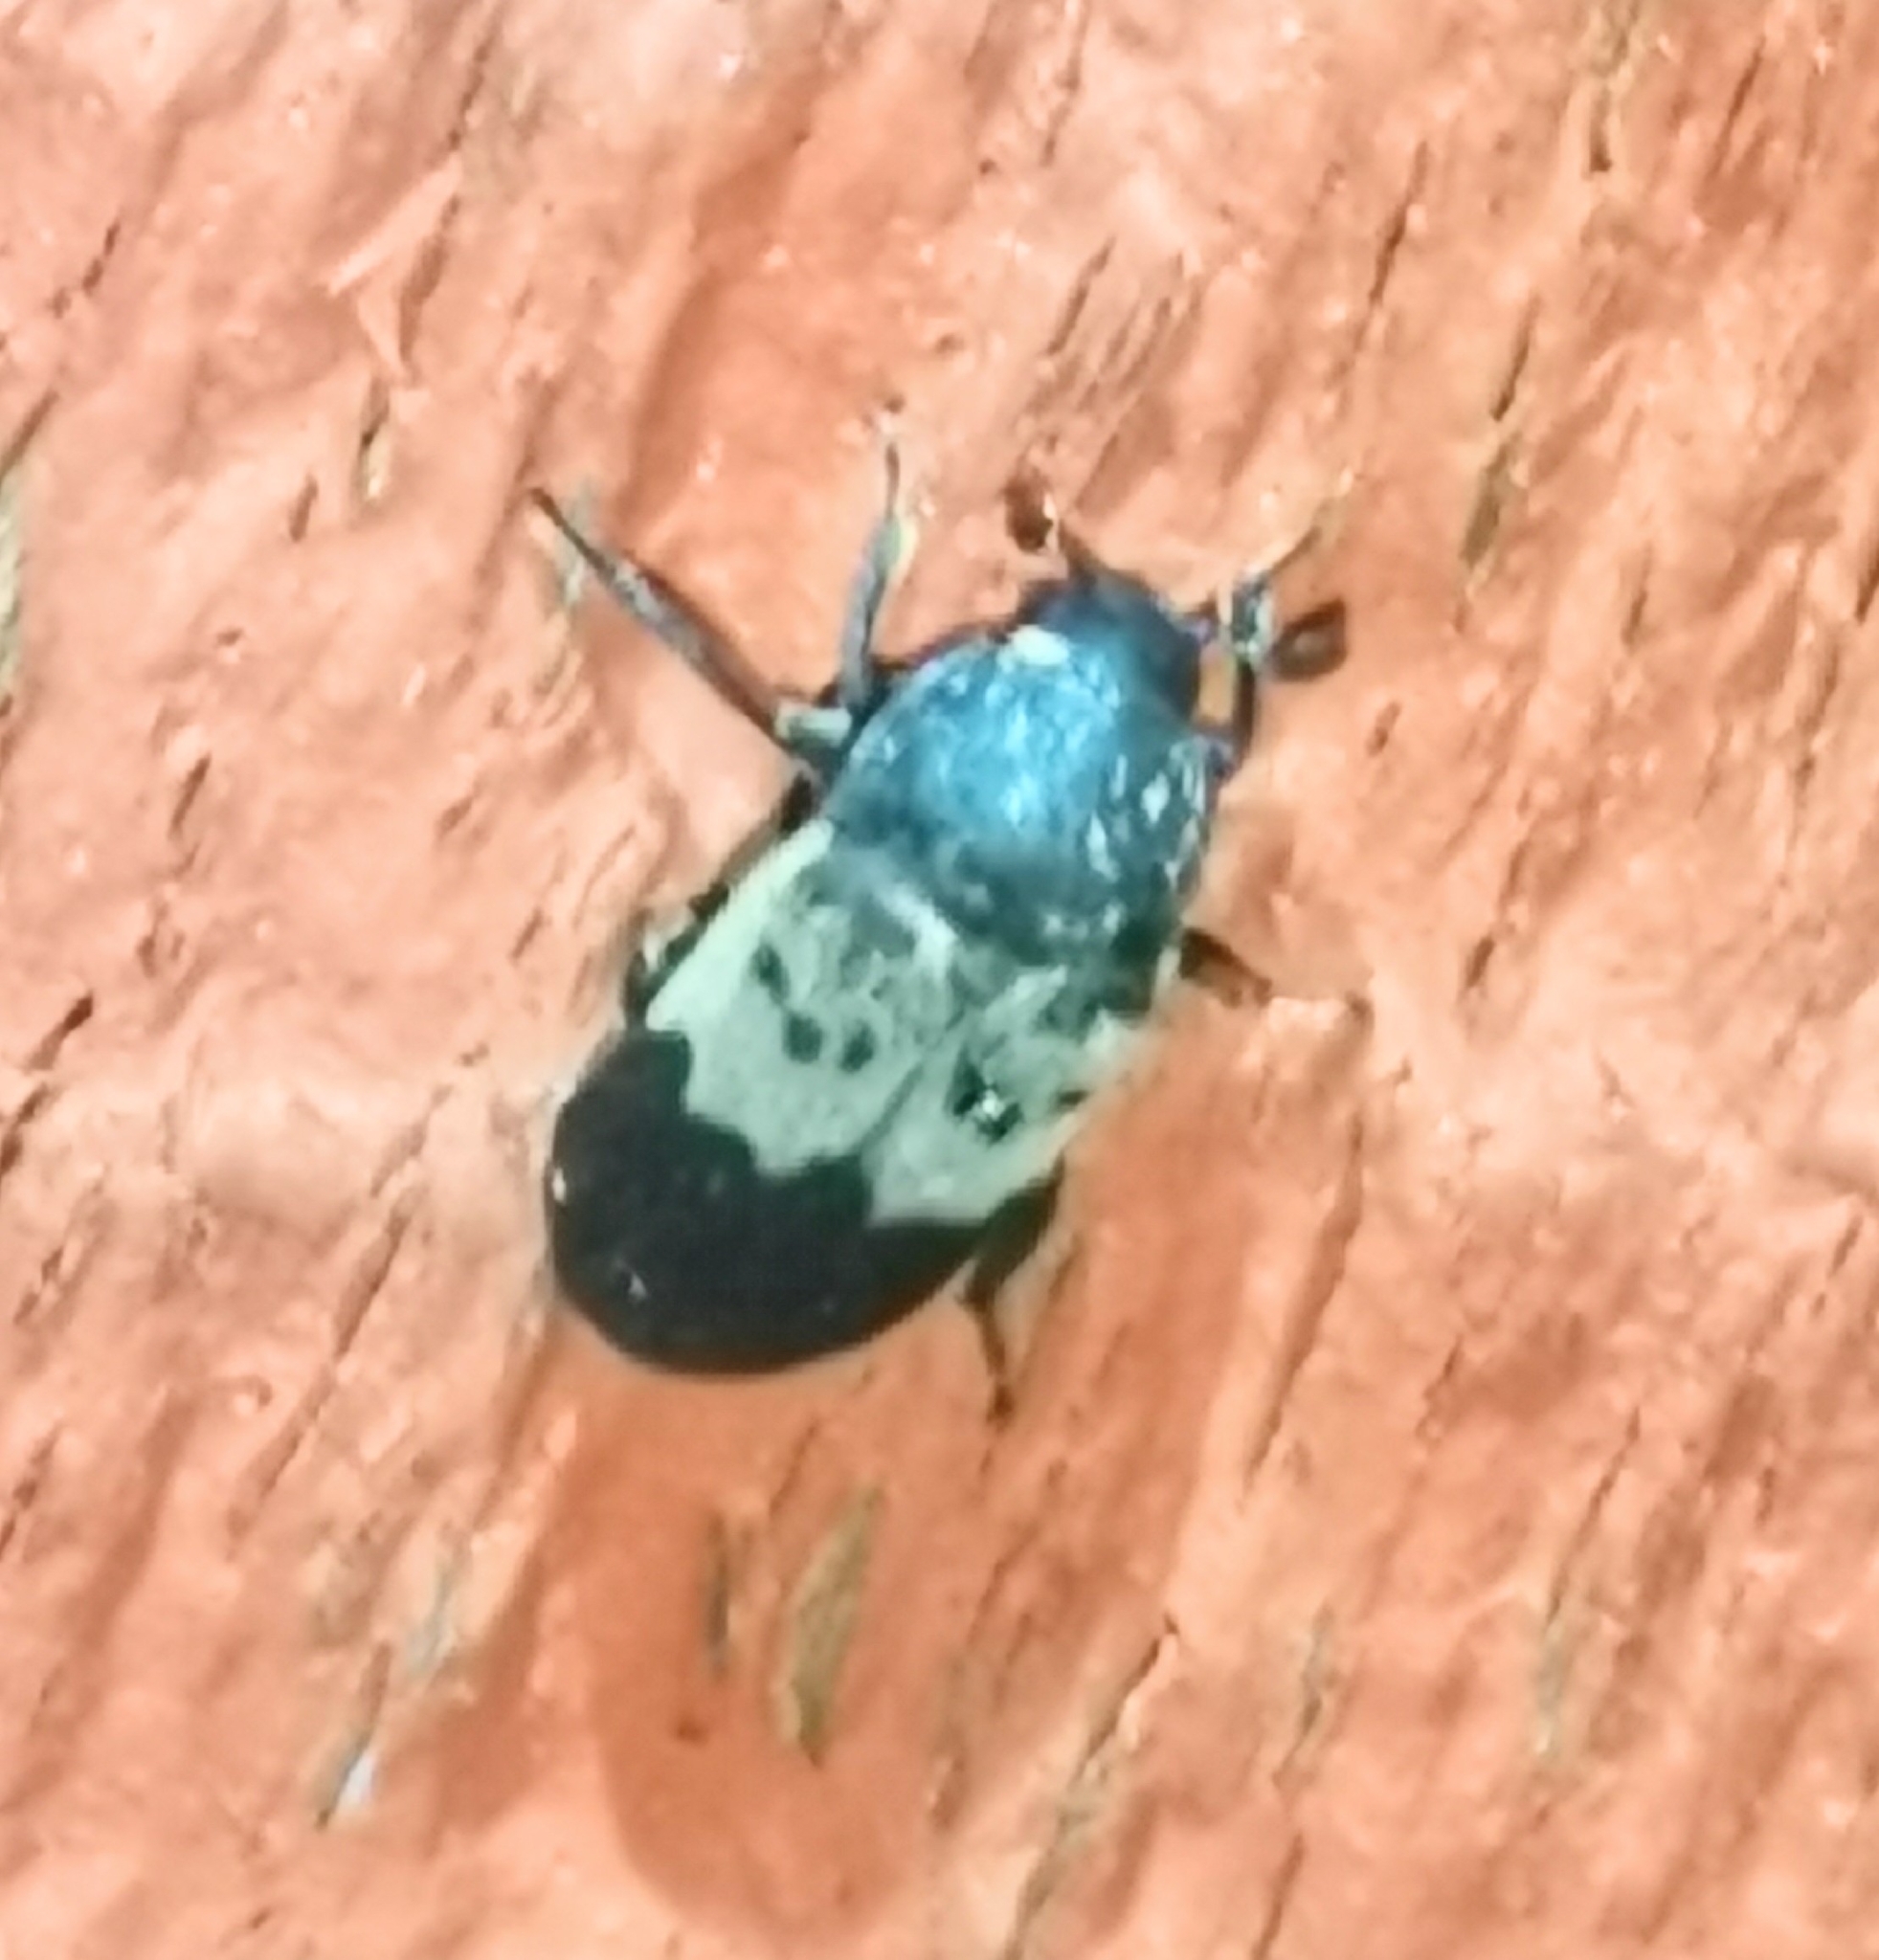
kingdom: Animalia
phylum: Arthropoda
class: Insecta
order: Coleoptera
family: Dermestidae
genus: Dermestes
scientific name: Dermestes lardarius
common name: Larder beetle
